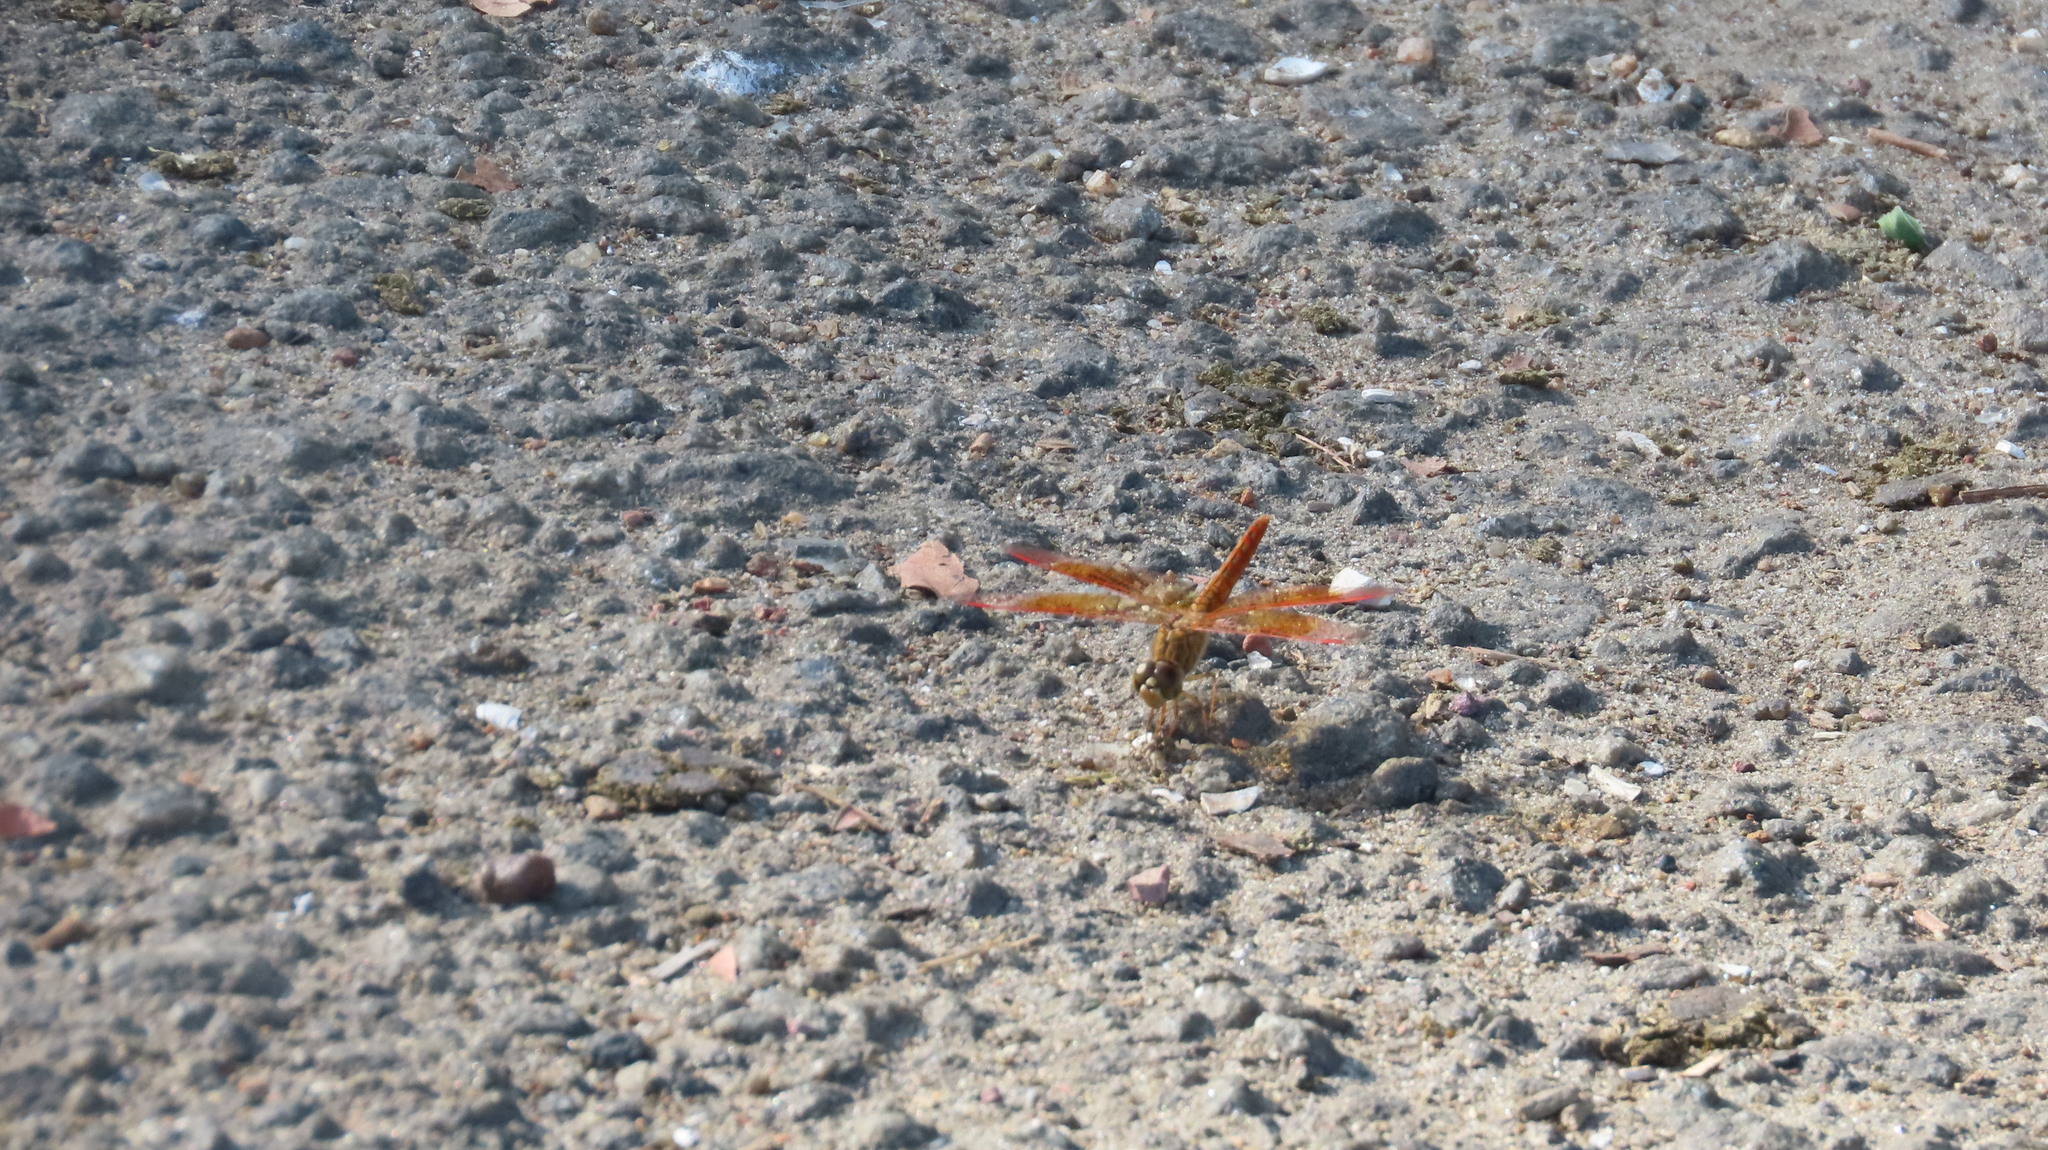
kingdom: Animalia
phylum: Arthropoda
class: Insecta
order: Odonata
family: Libellulidae
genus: Brachythemis
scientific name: Brachythemis contaminata
